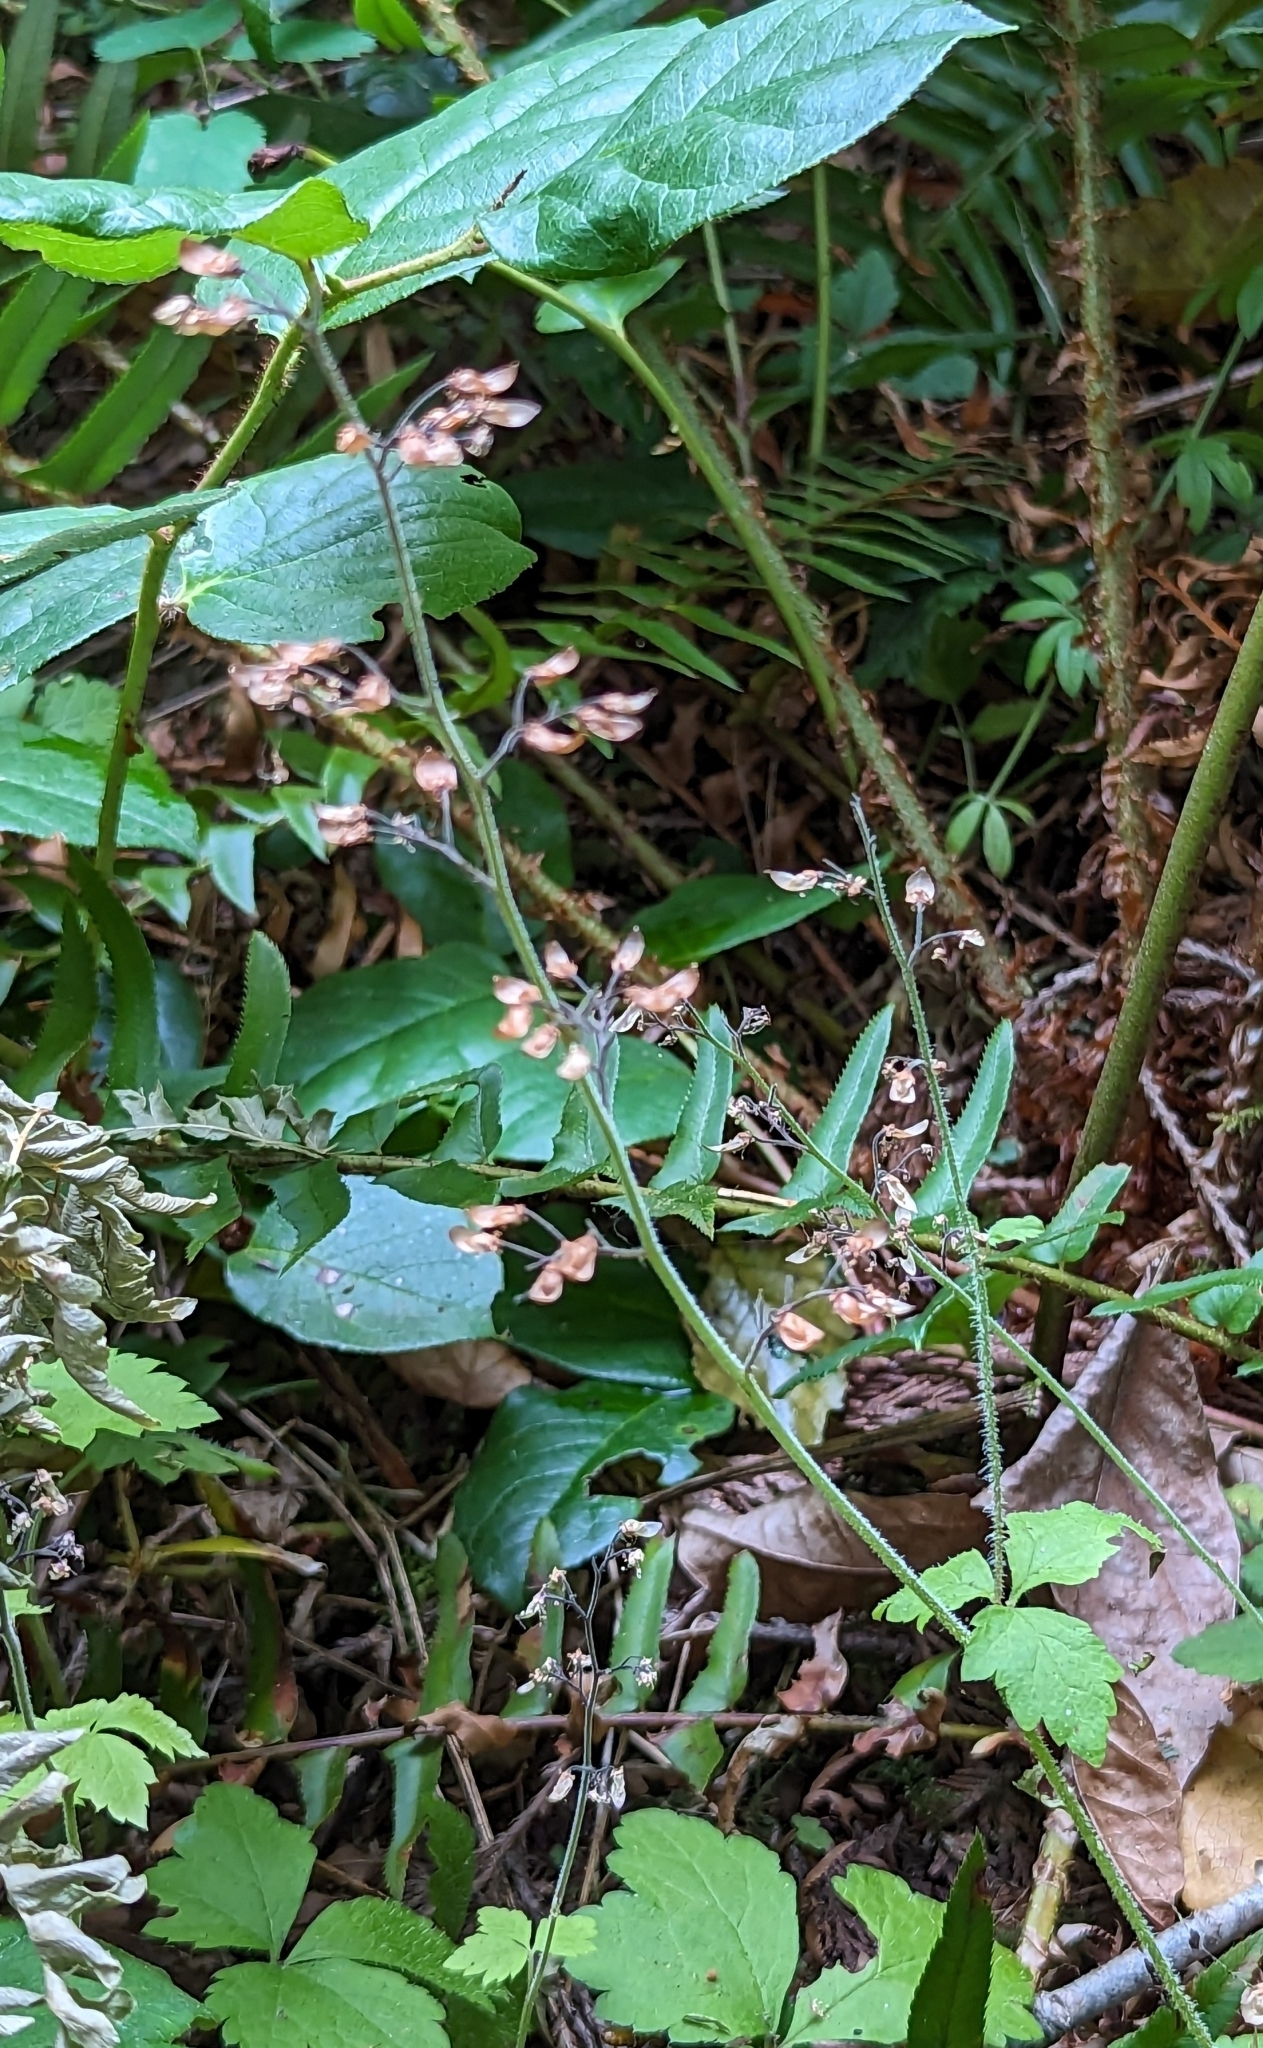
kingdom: Plantae
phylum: Tracheophyta
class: Magnoliopsida
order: Saxifragales
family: Saxifragaceae
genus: Tiarella
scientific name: Tiarella trifoliata
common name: Sugar-scoop
